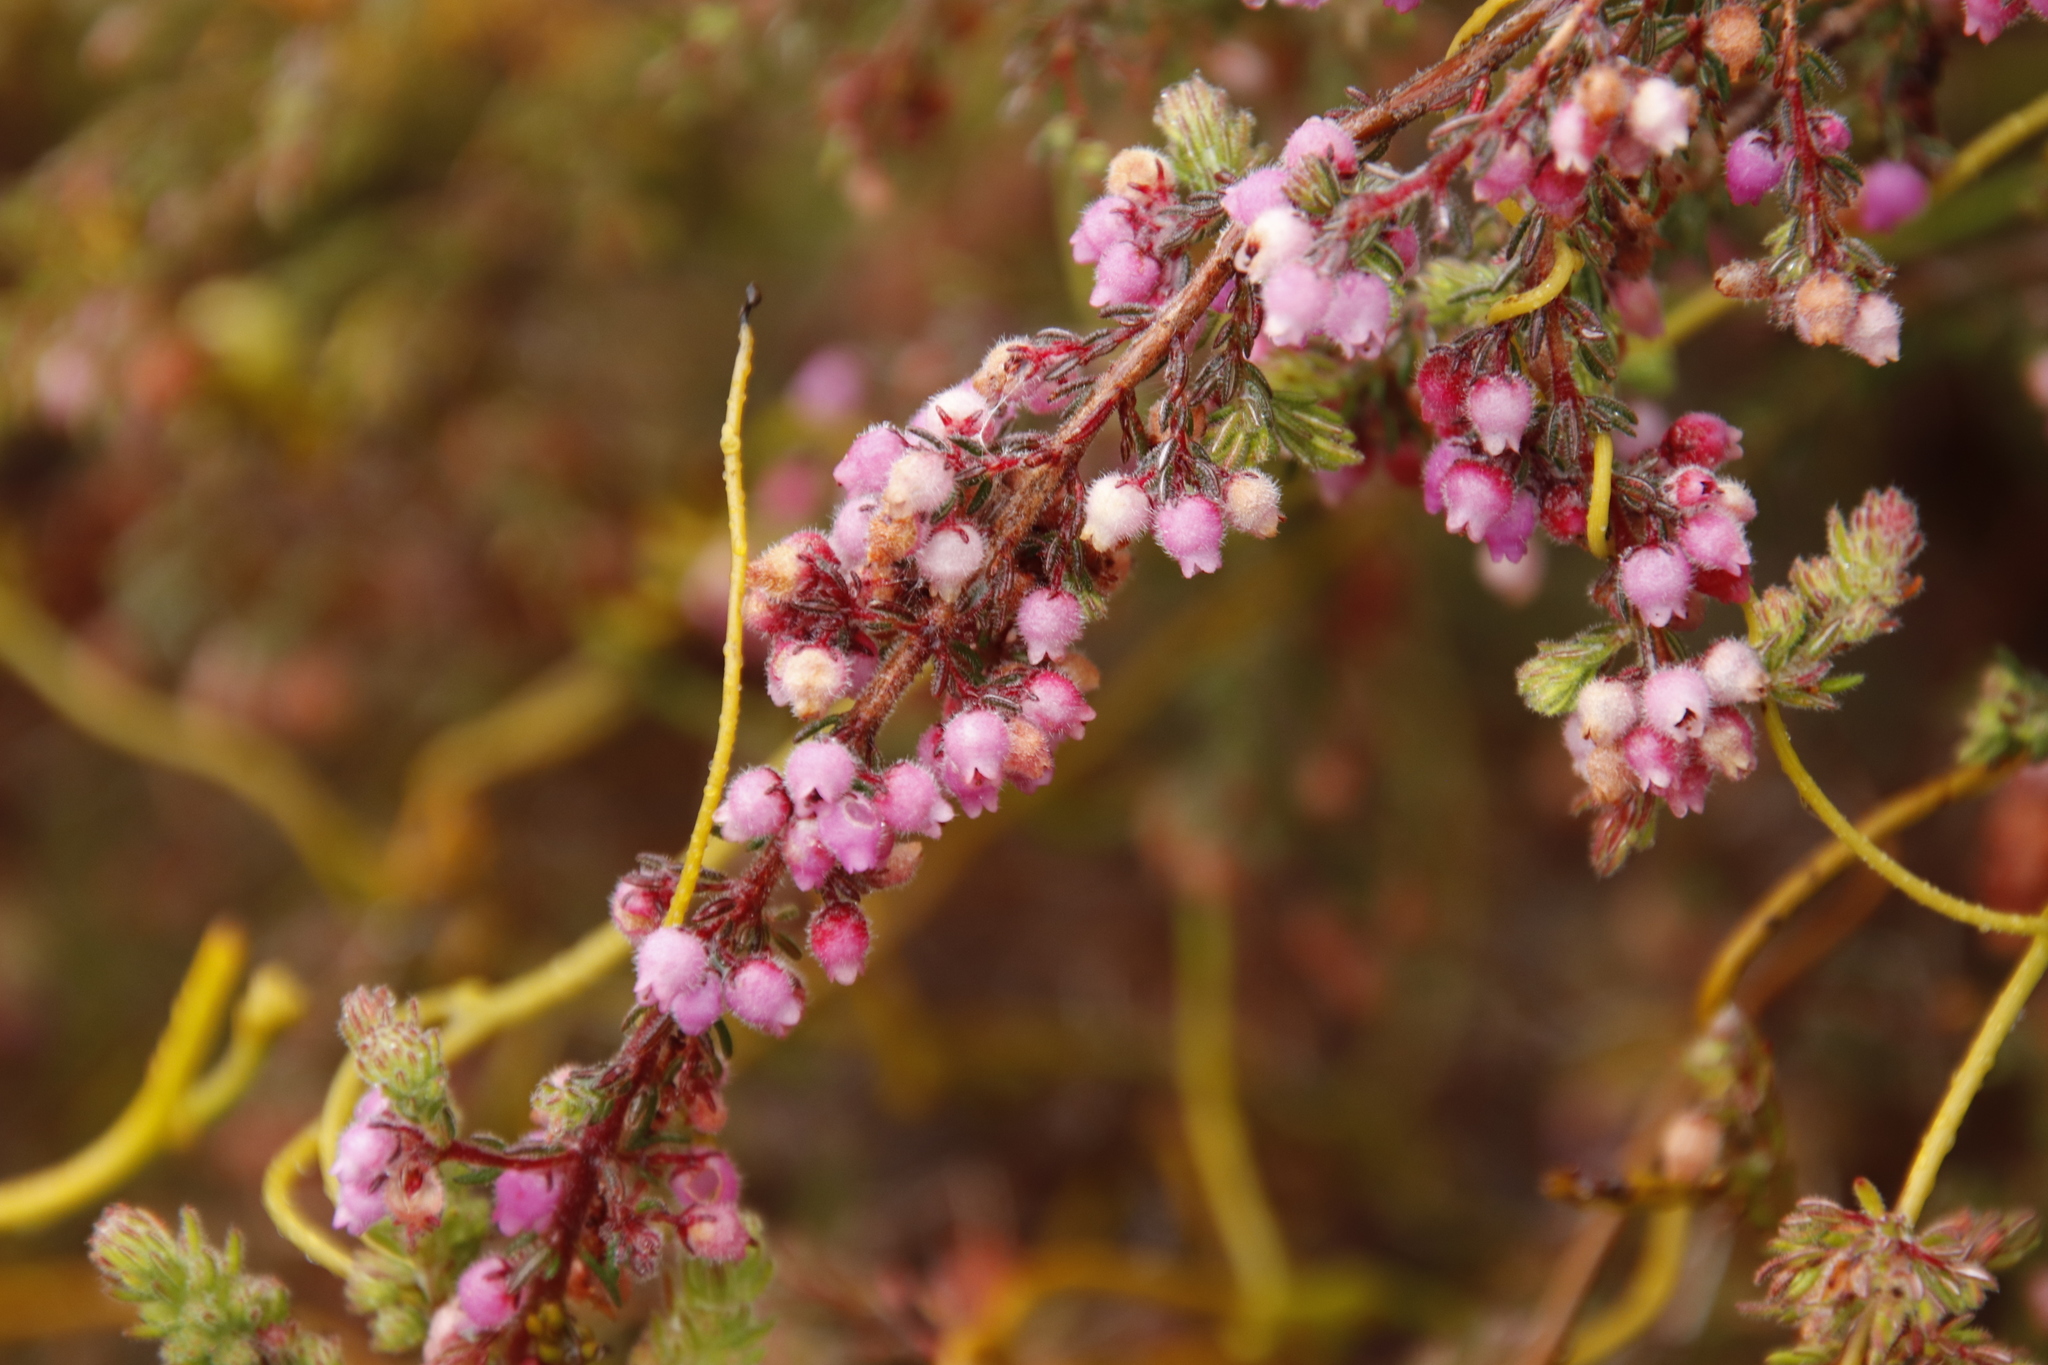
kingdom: Plantae
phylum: Tracheophyta
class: Magnoliopsida
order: Ericales
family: Ericaceae
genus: Erica
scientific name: Erica hirtiflora
